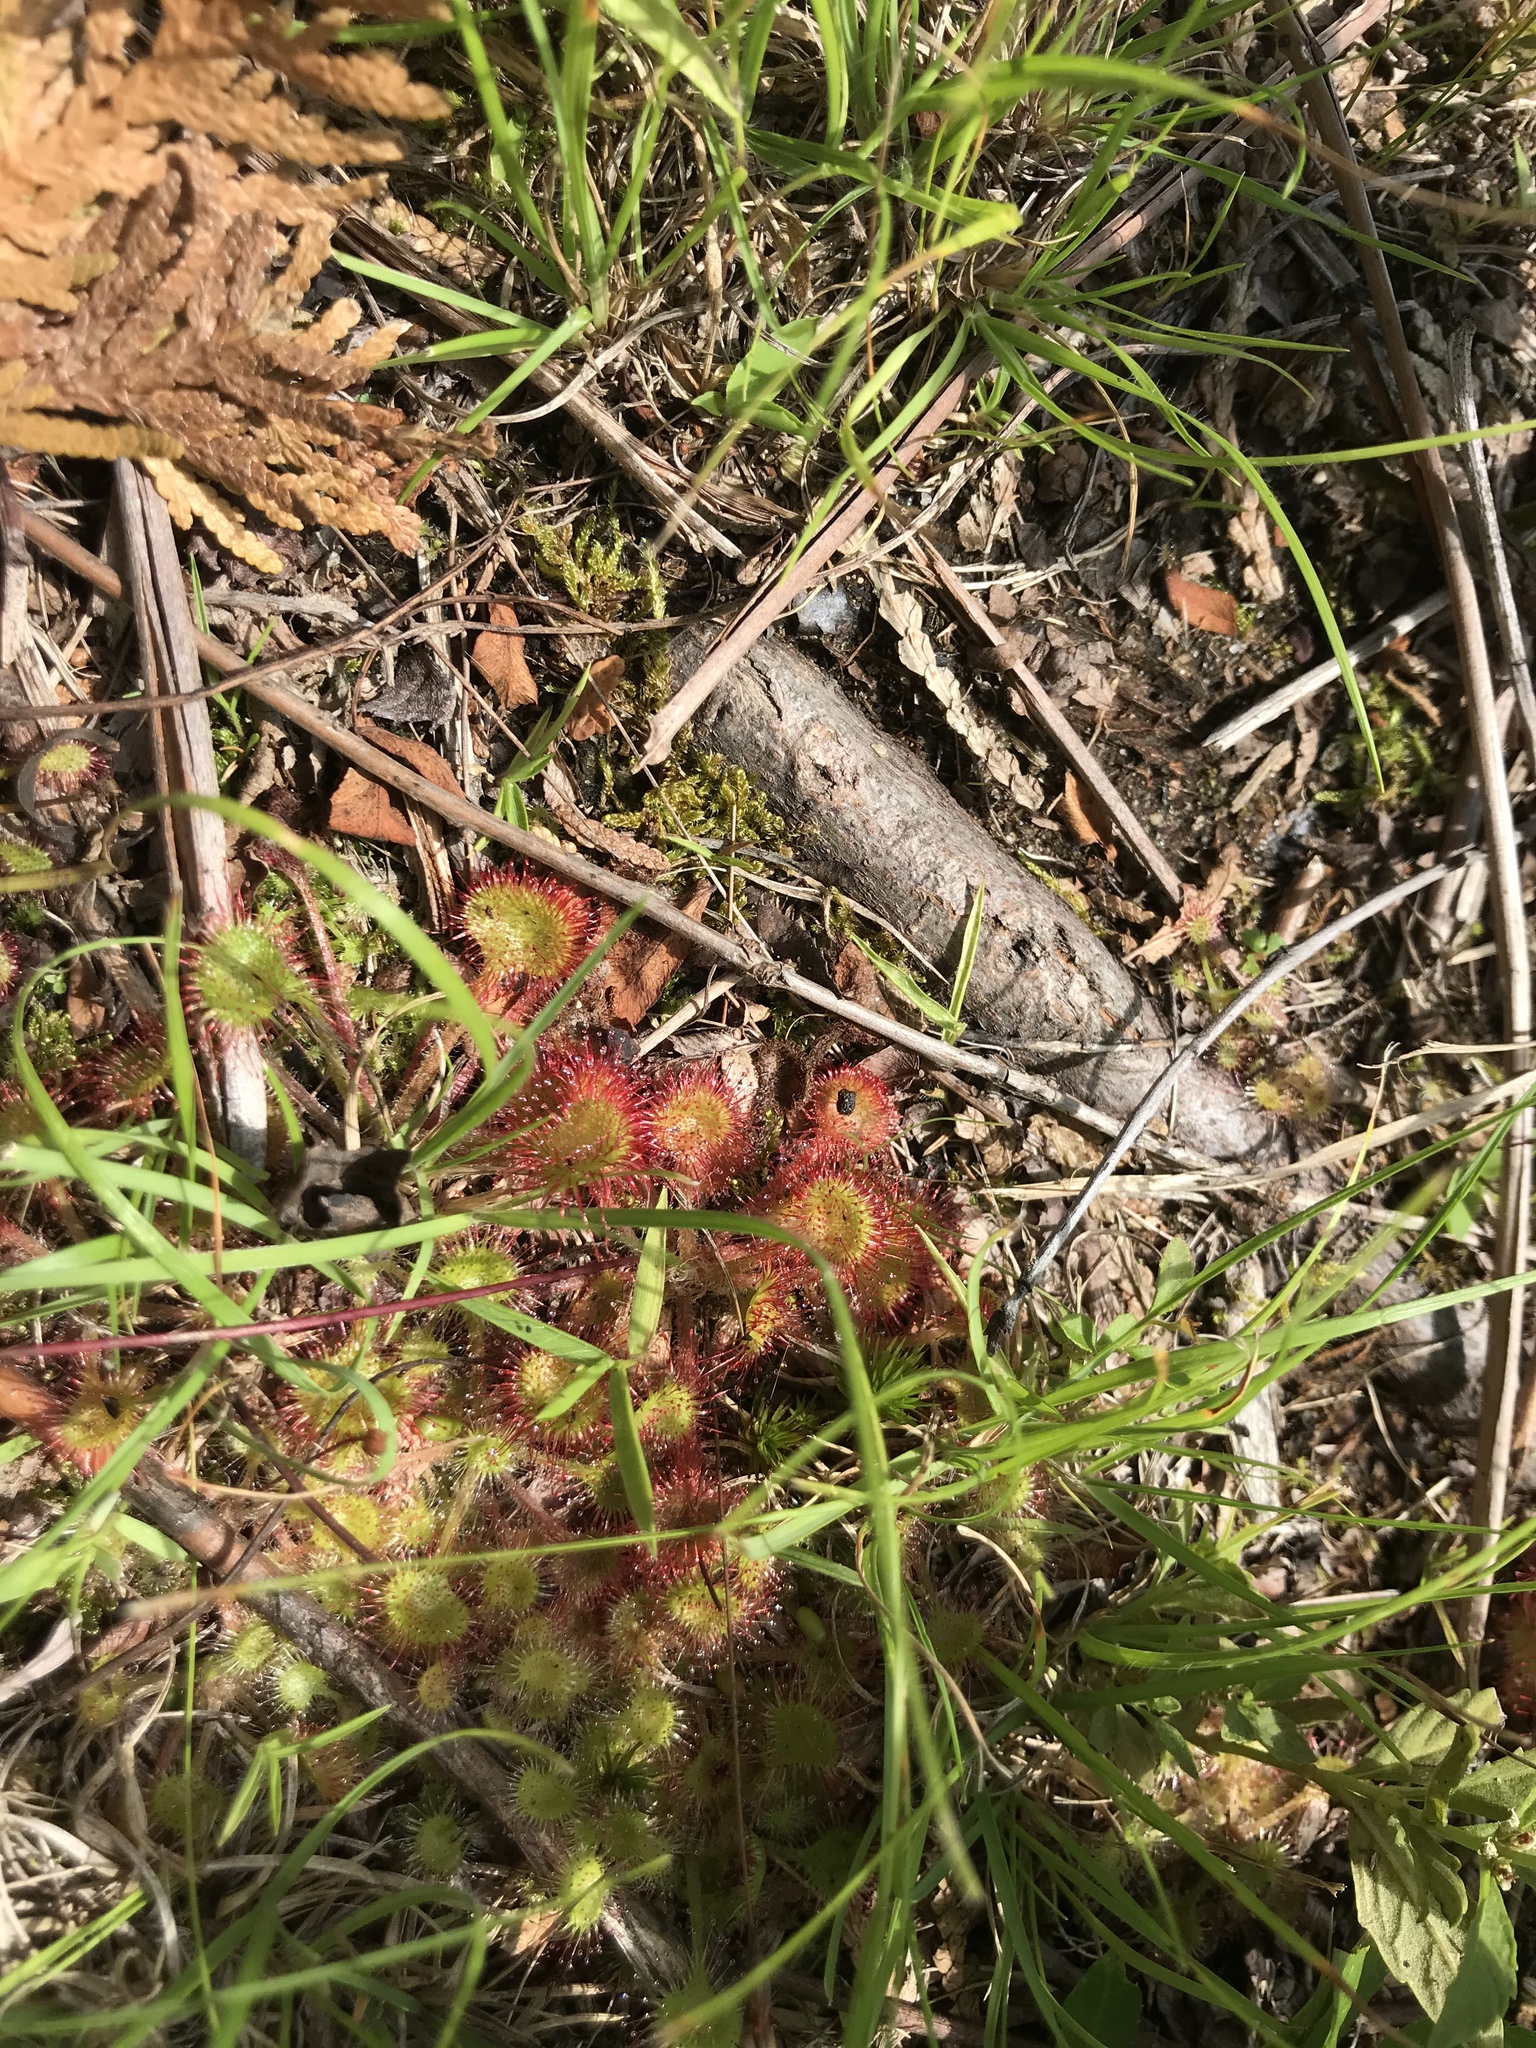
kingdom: Plantae
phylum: Tracheophyta
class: Magnoliopsida
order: Caryophyllales
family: Droseraceae
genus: Drosera
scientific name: Drosera rotundifolia
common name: Round-leaved sundew
